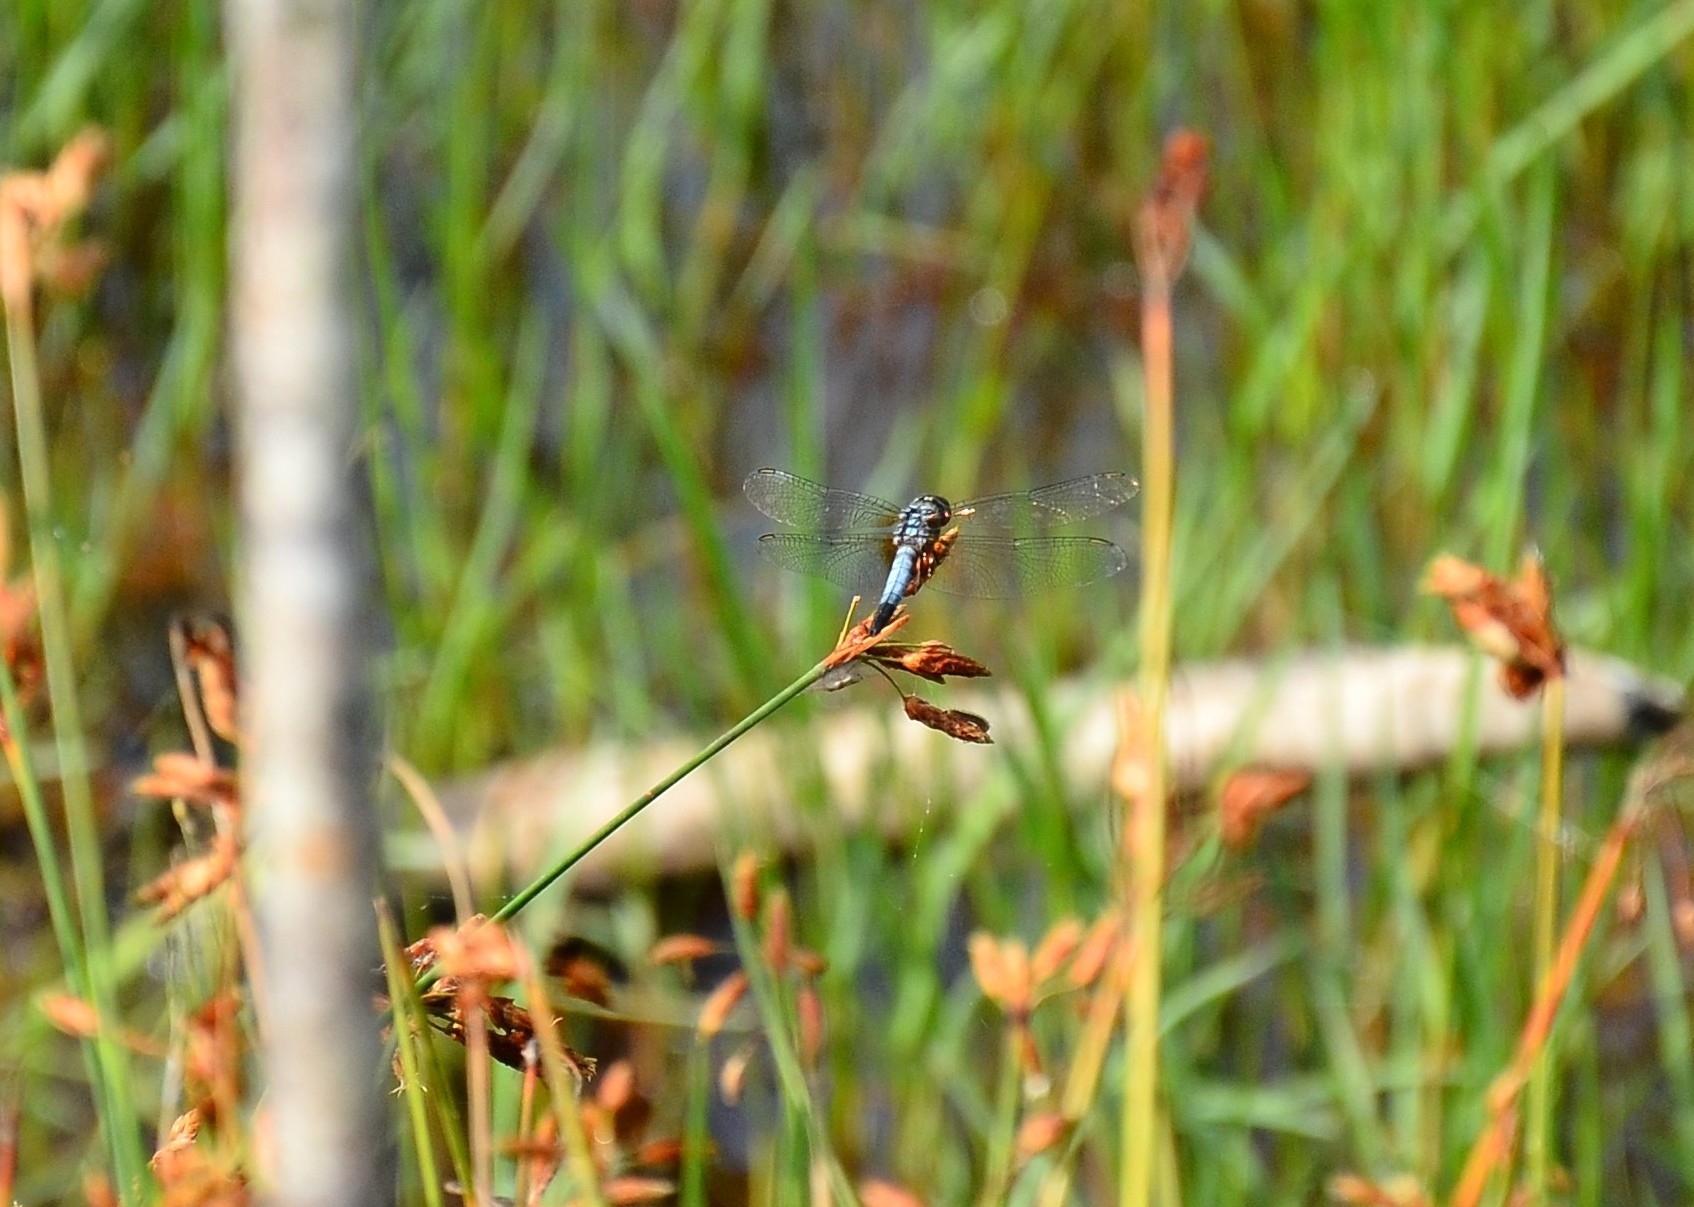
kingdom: Animalia
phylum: Arthropoda
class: Insecta
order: Odonata
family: Libellulidae
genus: Brachydiplax
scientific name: Brachydiplax chalybea
